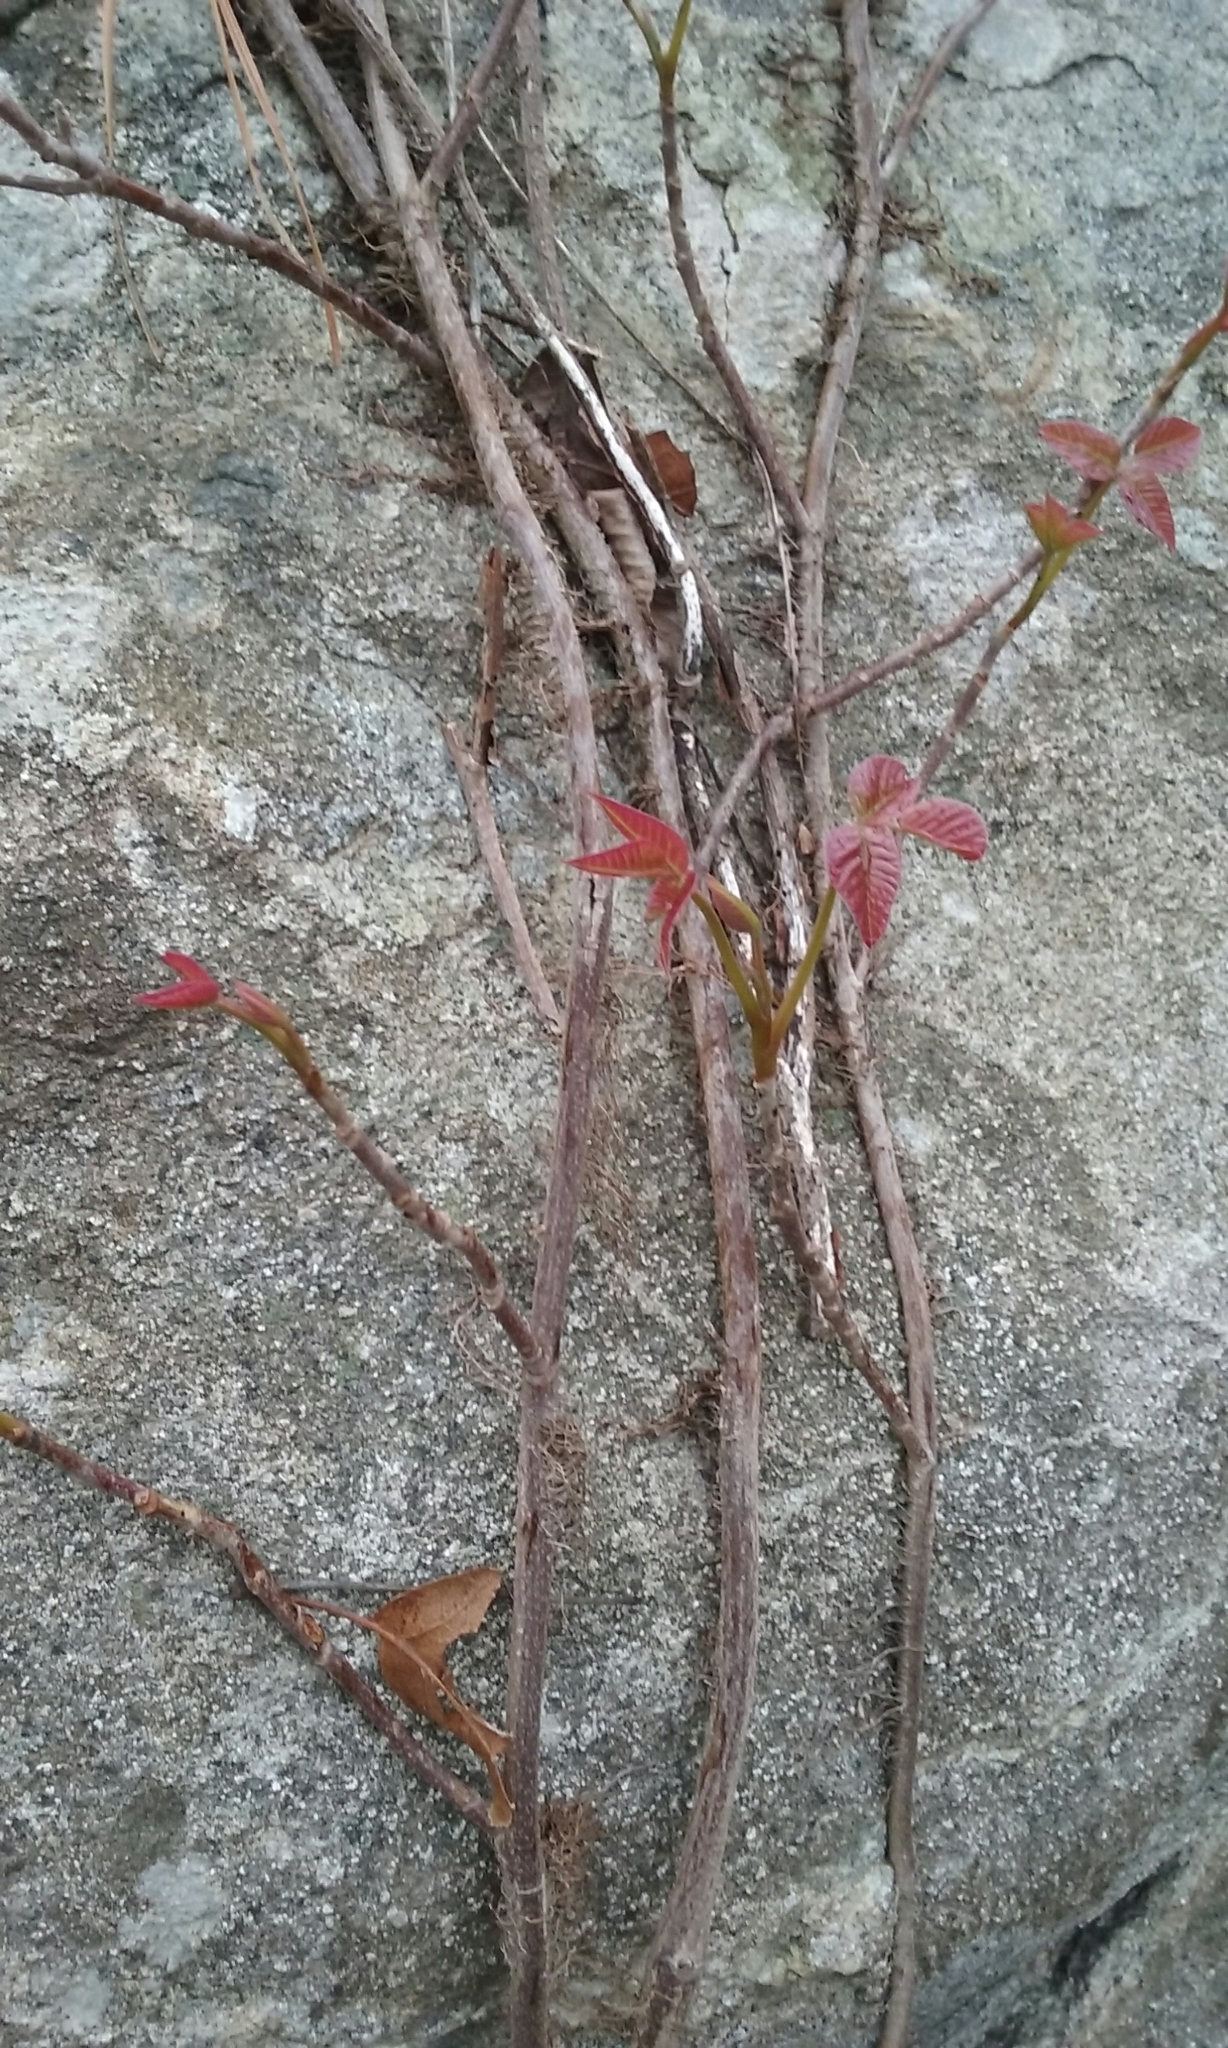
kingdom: Plantae
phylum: Tracheophyta
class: Magnoliopsida
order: Sapindales
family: Anacardiaceae
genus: Toxicodendron
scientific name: Toxicodendron radicans
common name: Poison ivy
